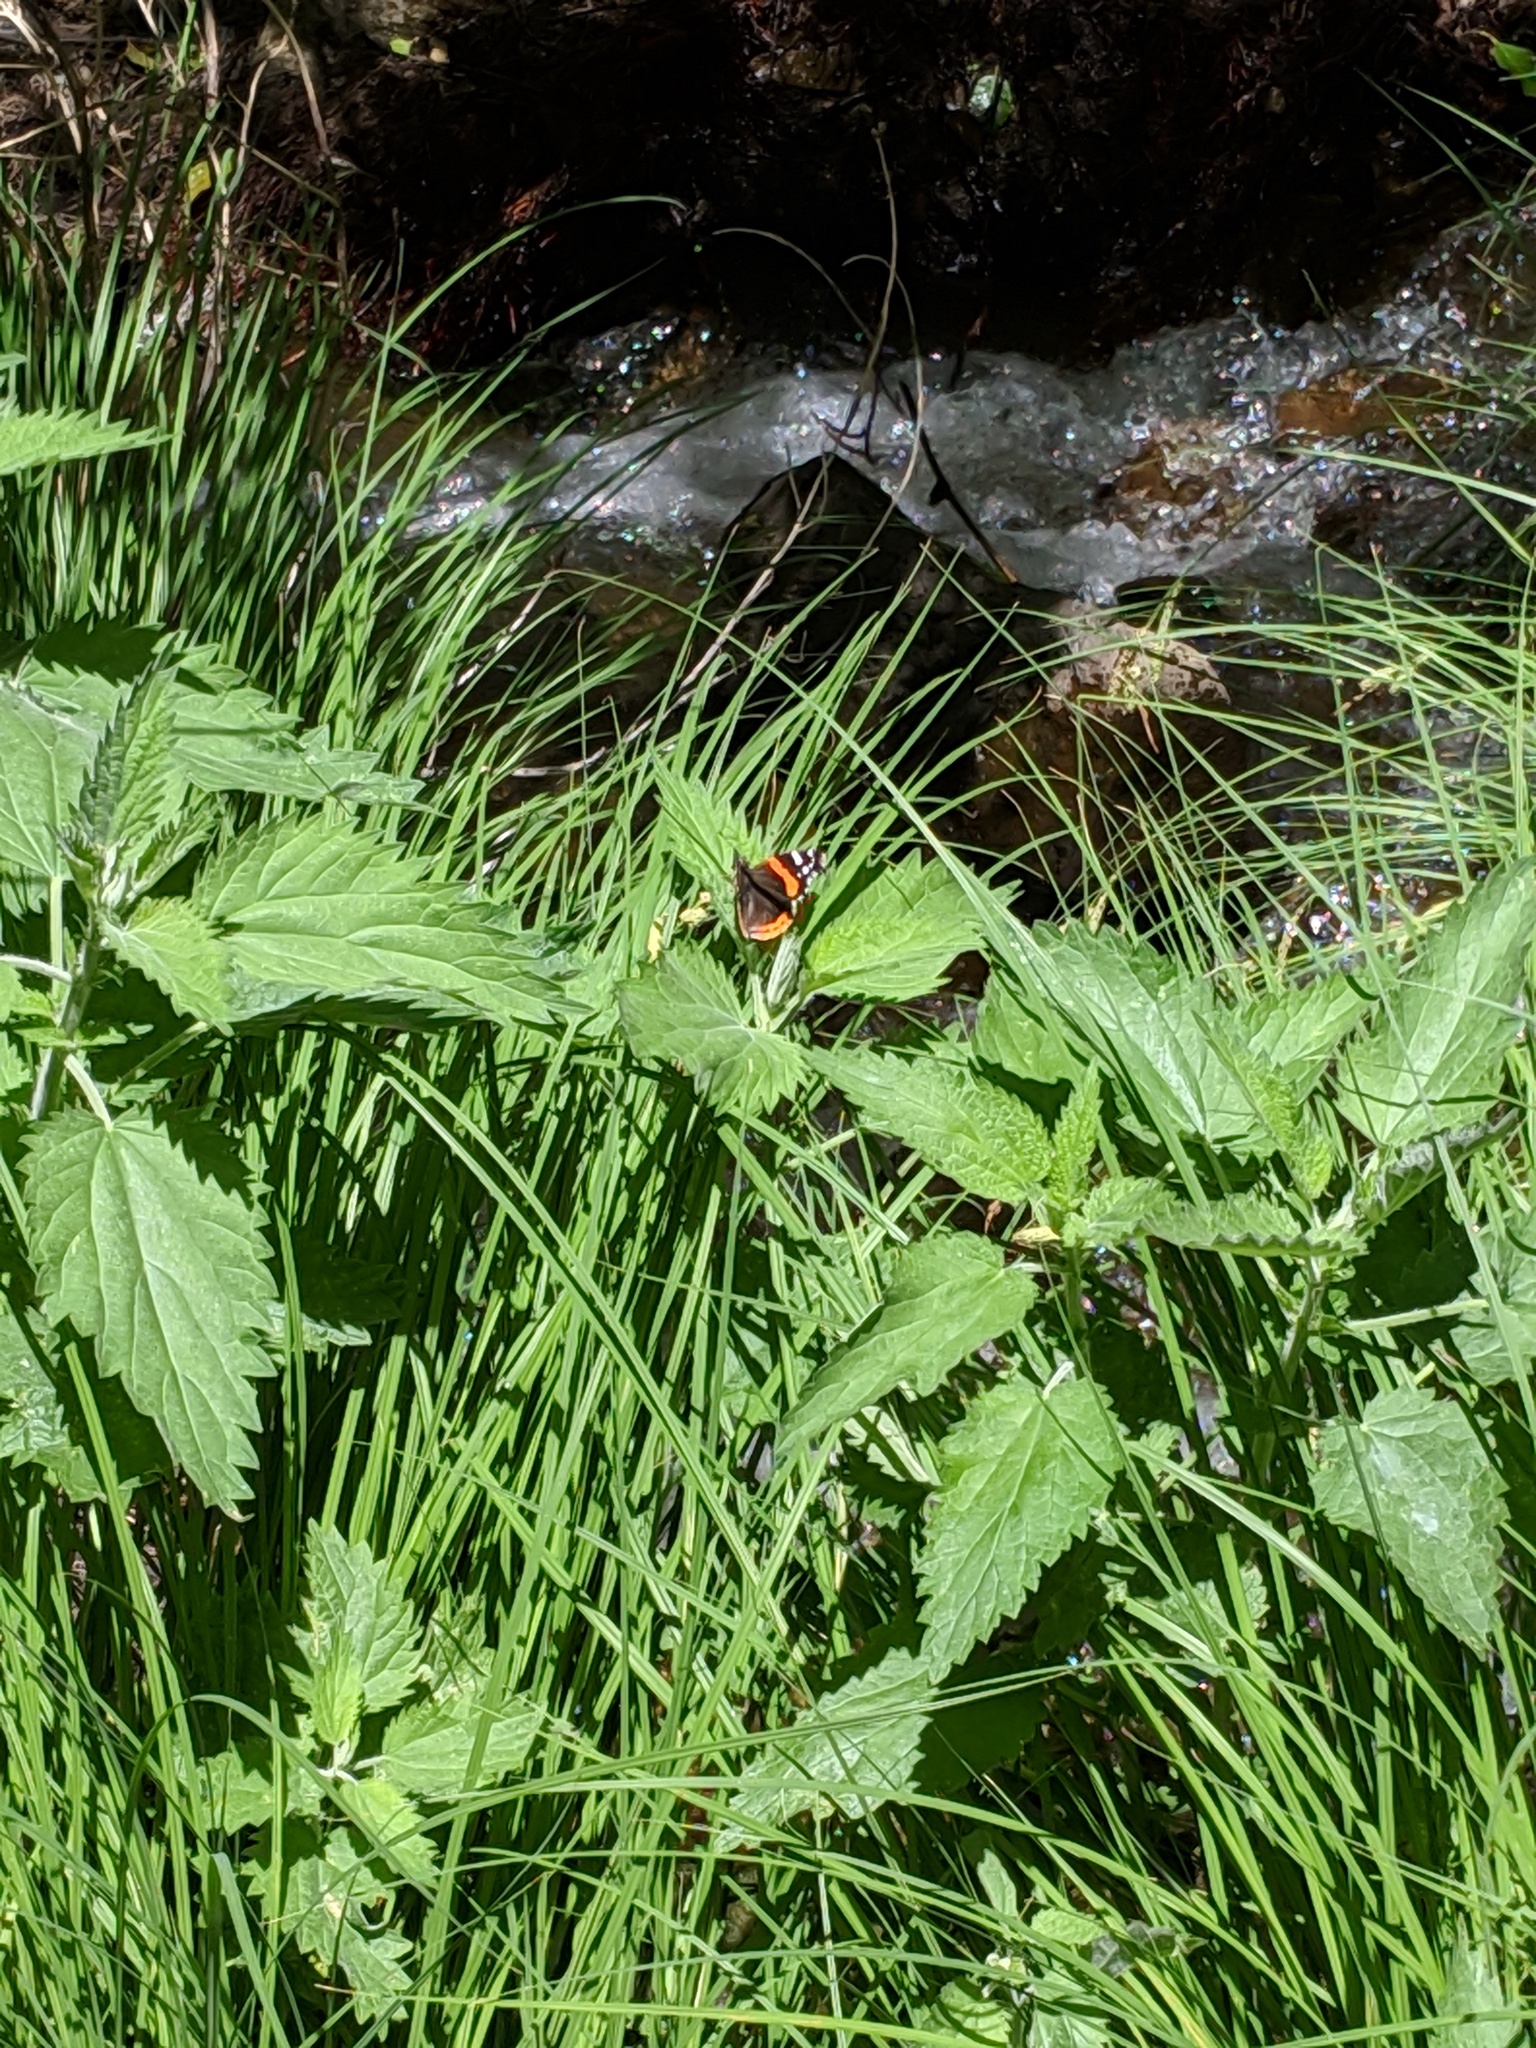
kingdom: Animalia
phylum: Arthropoda
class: Insecta
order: Lepidoptera
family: Nymphalidae
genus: Vanessa
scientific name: Vanessa atalanta
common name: Red admiral
